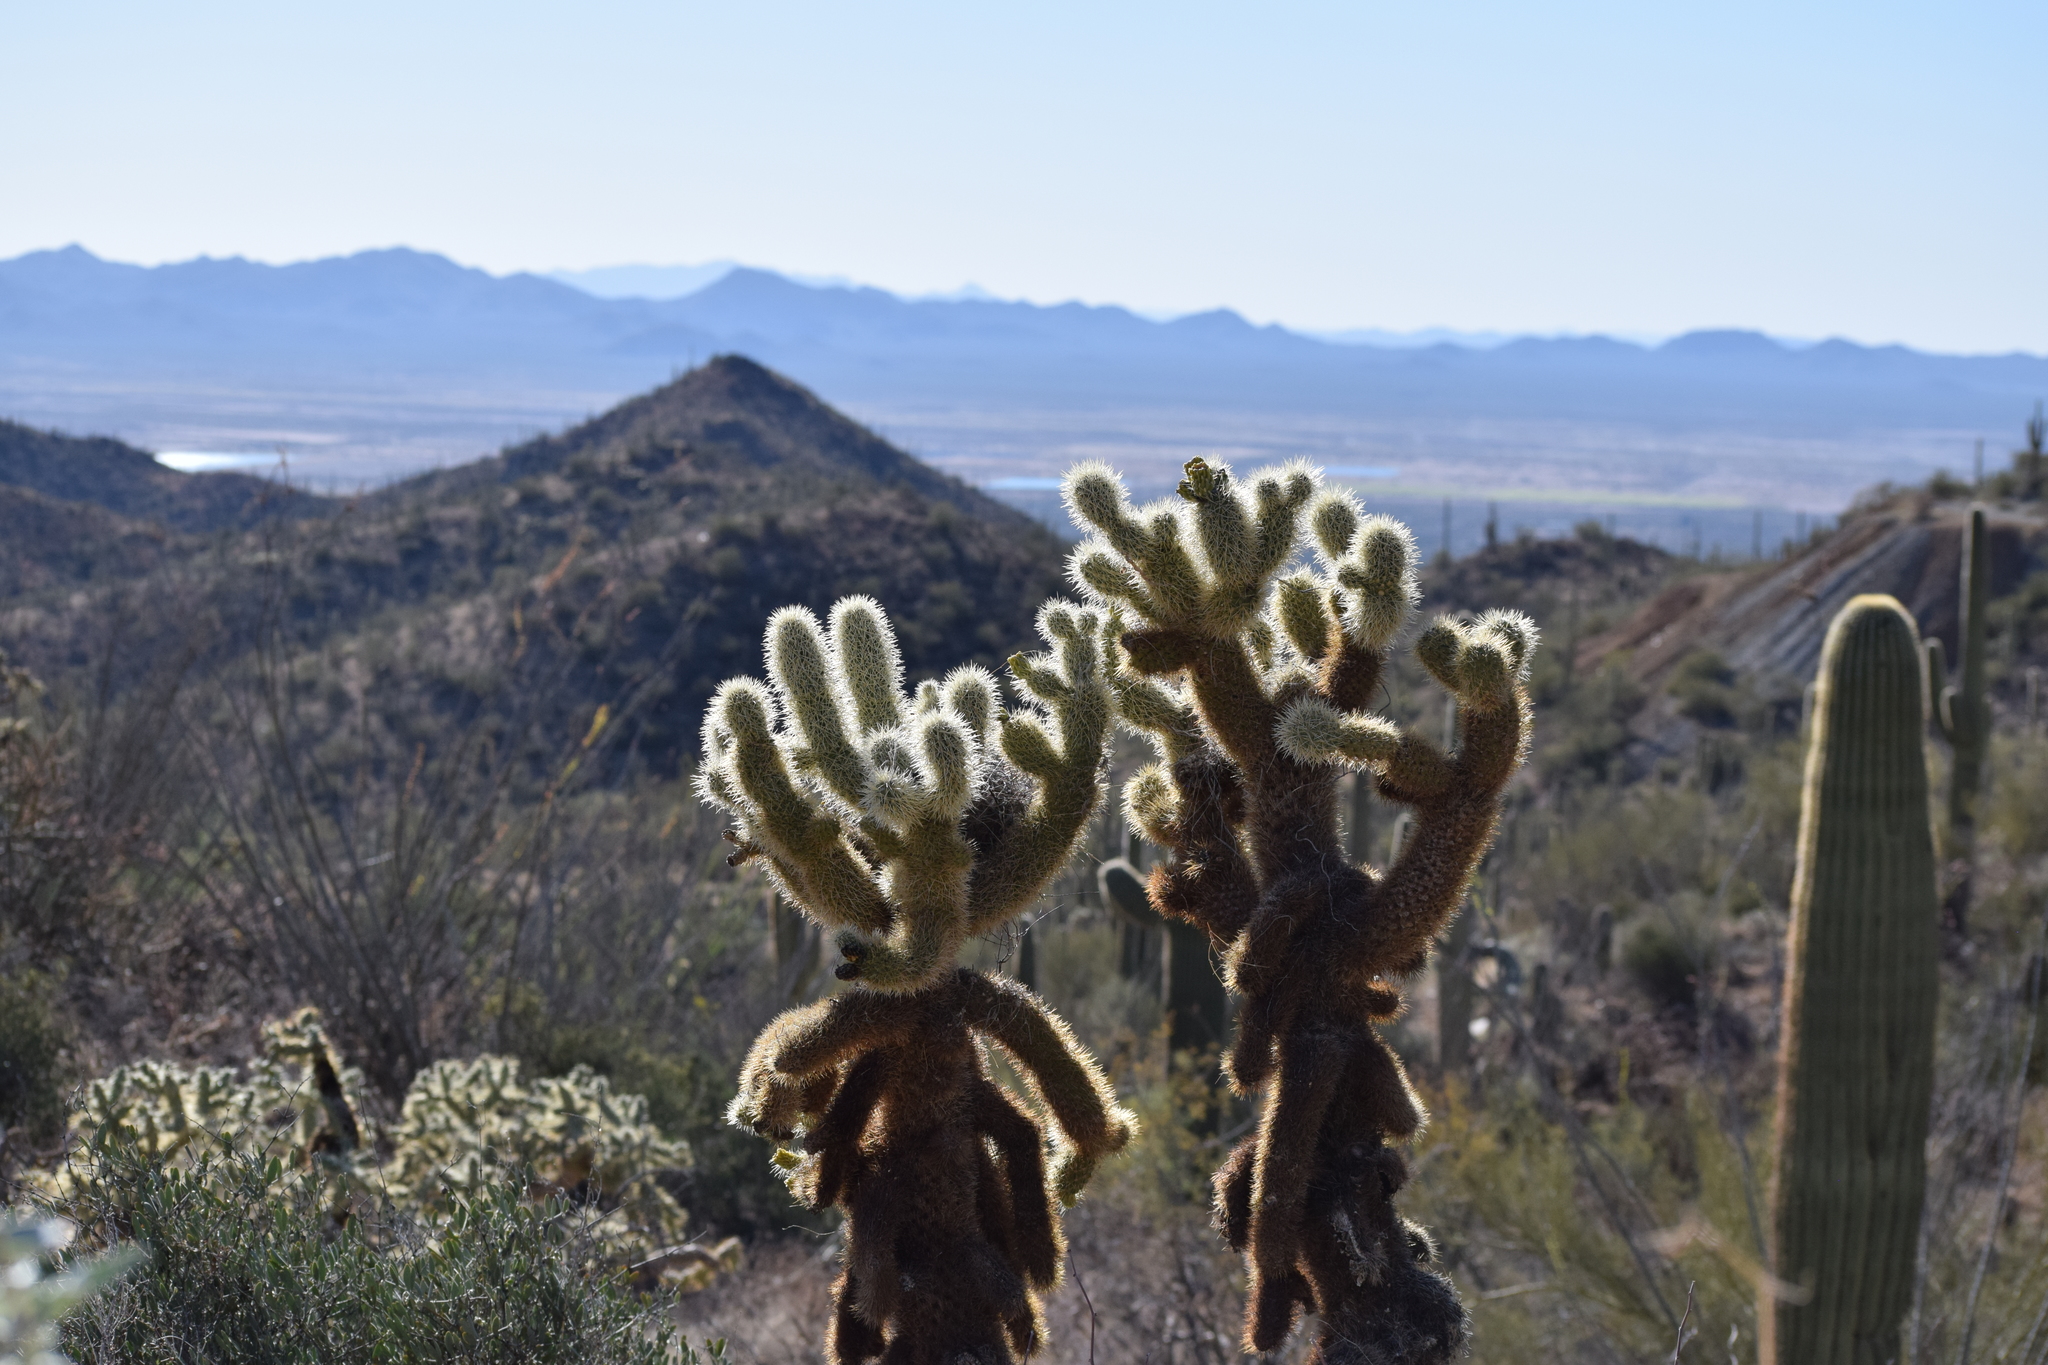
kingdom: Plantae
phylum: Tracheophyta
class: Magnoliopsida
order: Caryophyllales
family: Cactaceae
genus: Cylindropuntia
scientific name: Cylindropuntia fosbergii
